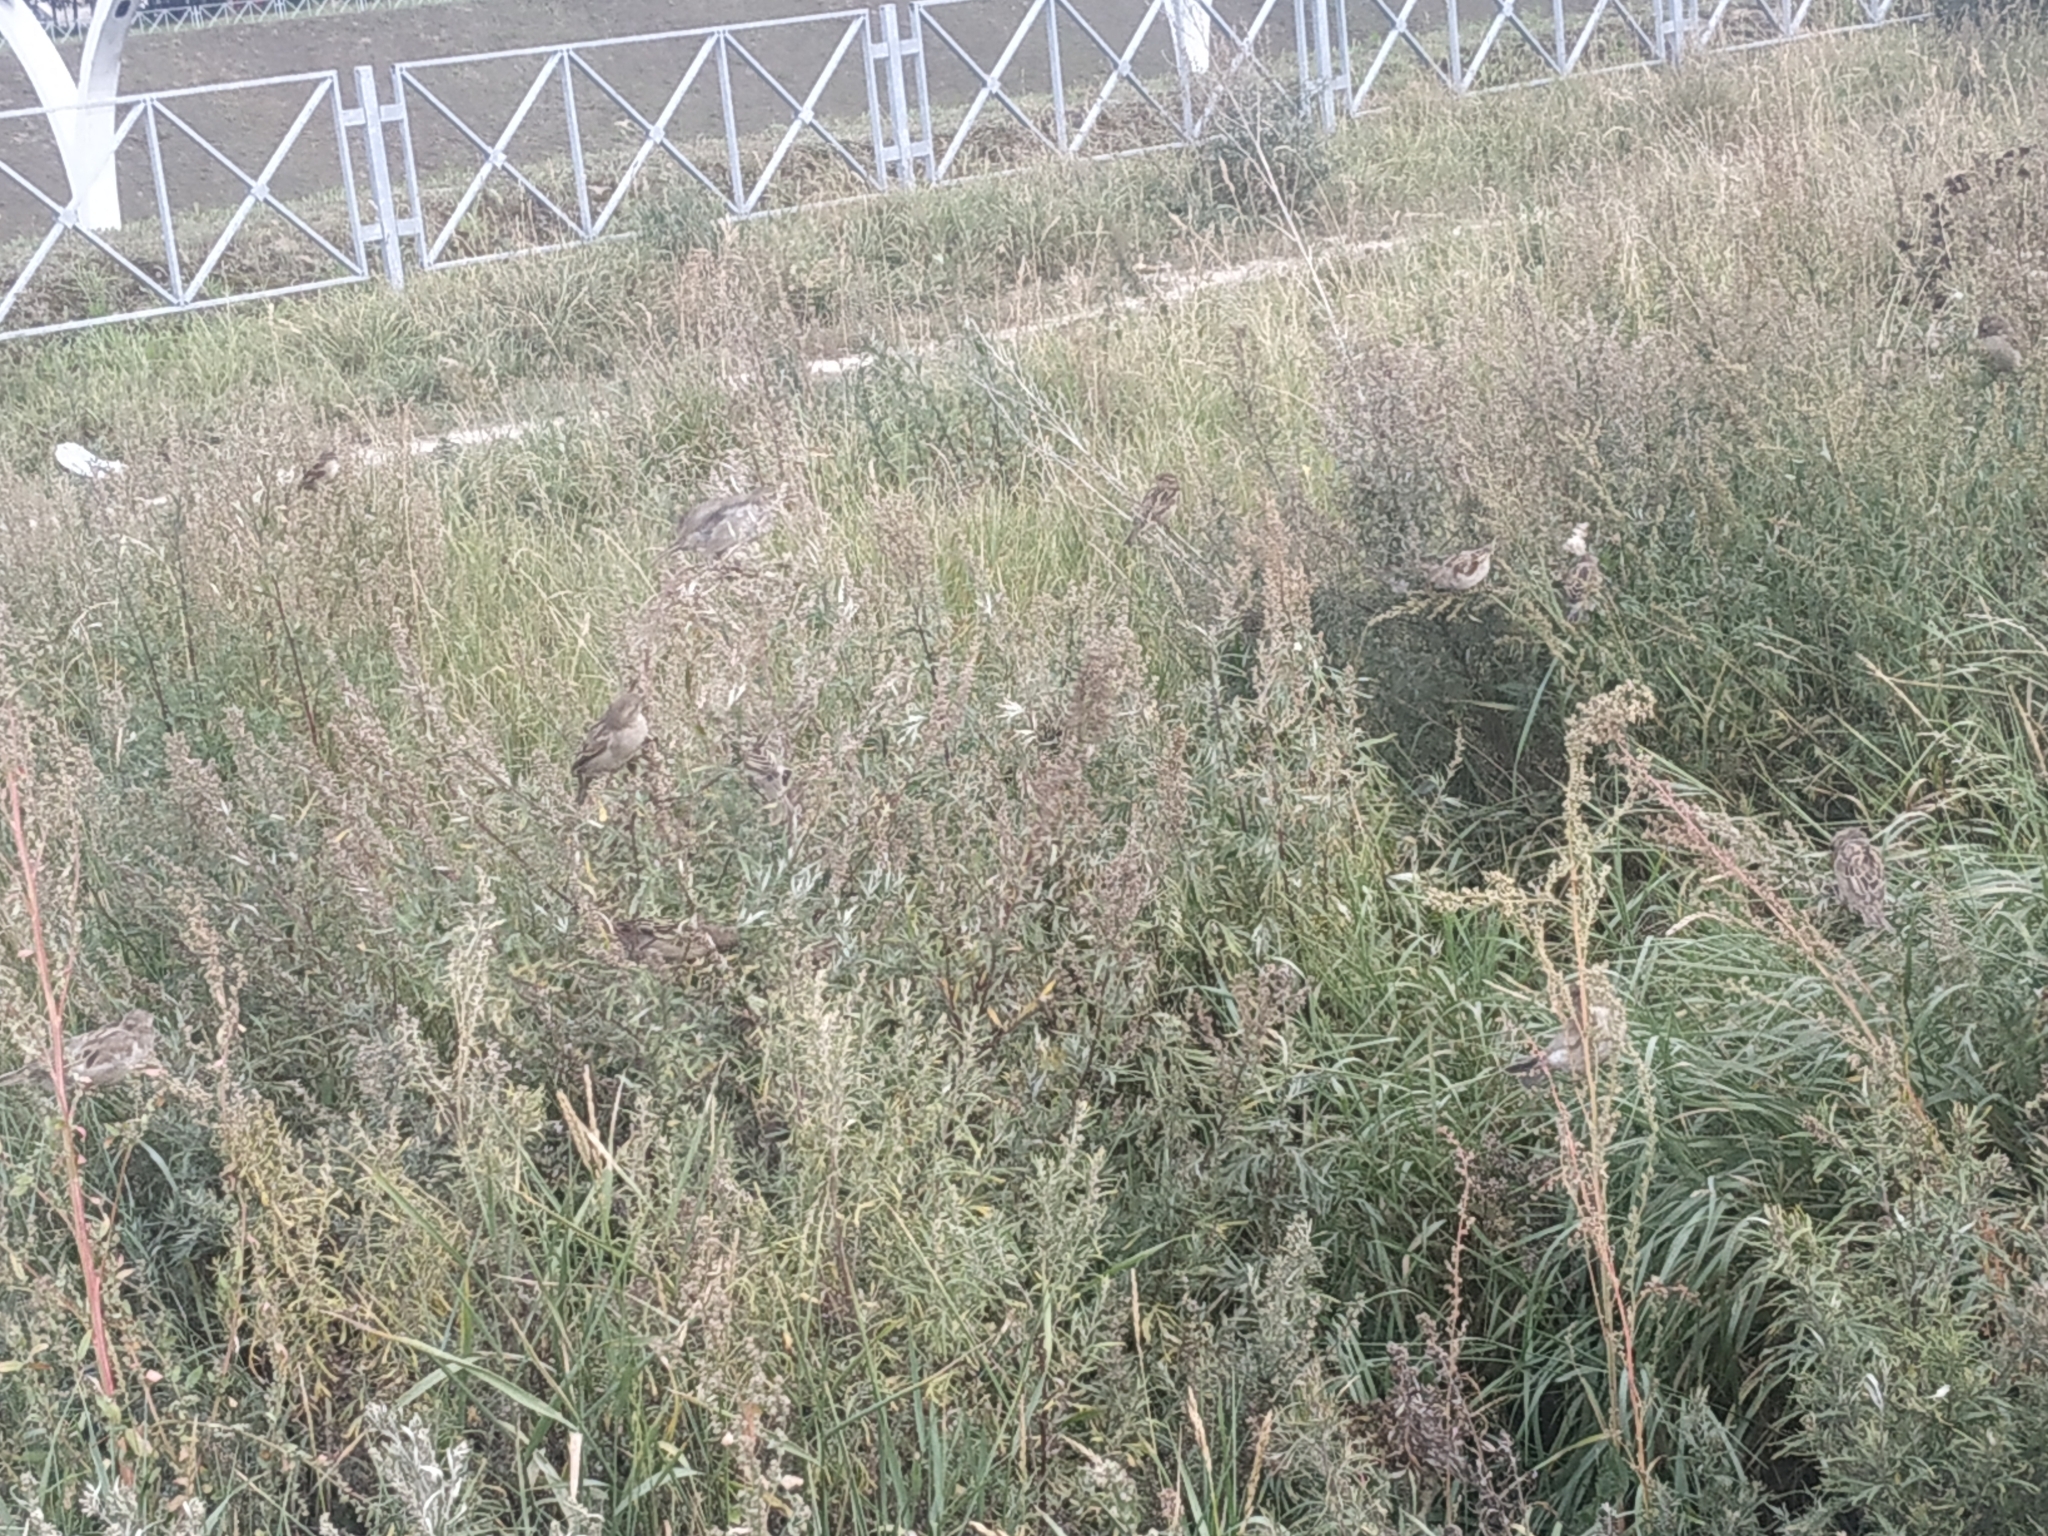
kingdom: Animalia
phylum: Chordata
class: Aves
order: Passeriformes
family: Passeridae
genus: Passer
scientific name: Passer domesticus
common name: House sparrow
